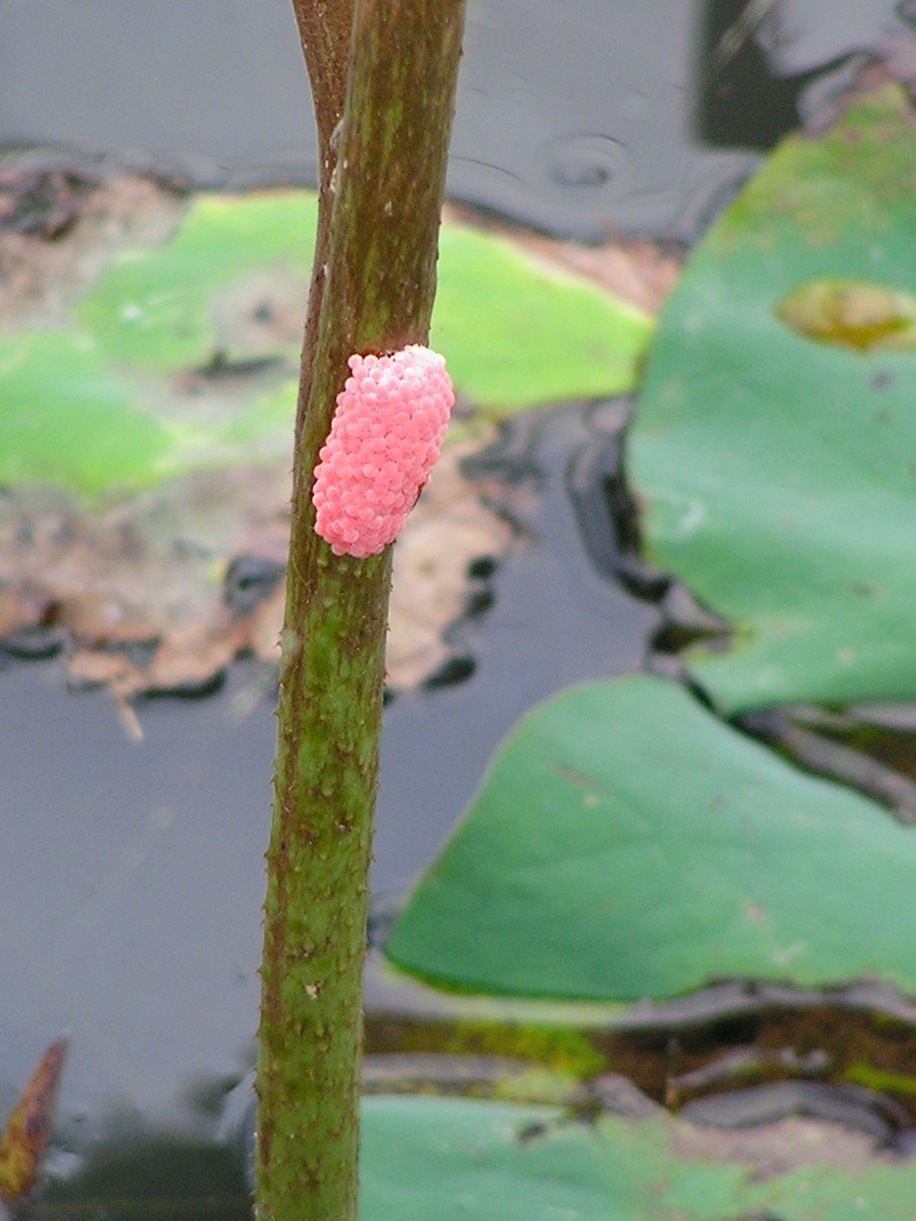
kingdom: Animalia
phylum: Mollusca
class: Gastropoda
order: Architaenioglossa
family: Ampullariidae
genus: Pomacea
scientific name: Pomacea canaliculata
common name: Channeled applesnail
